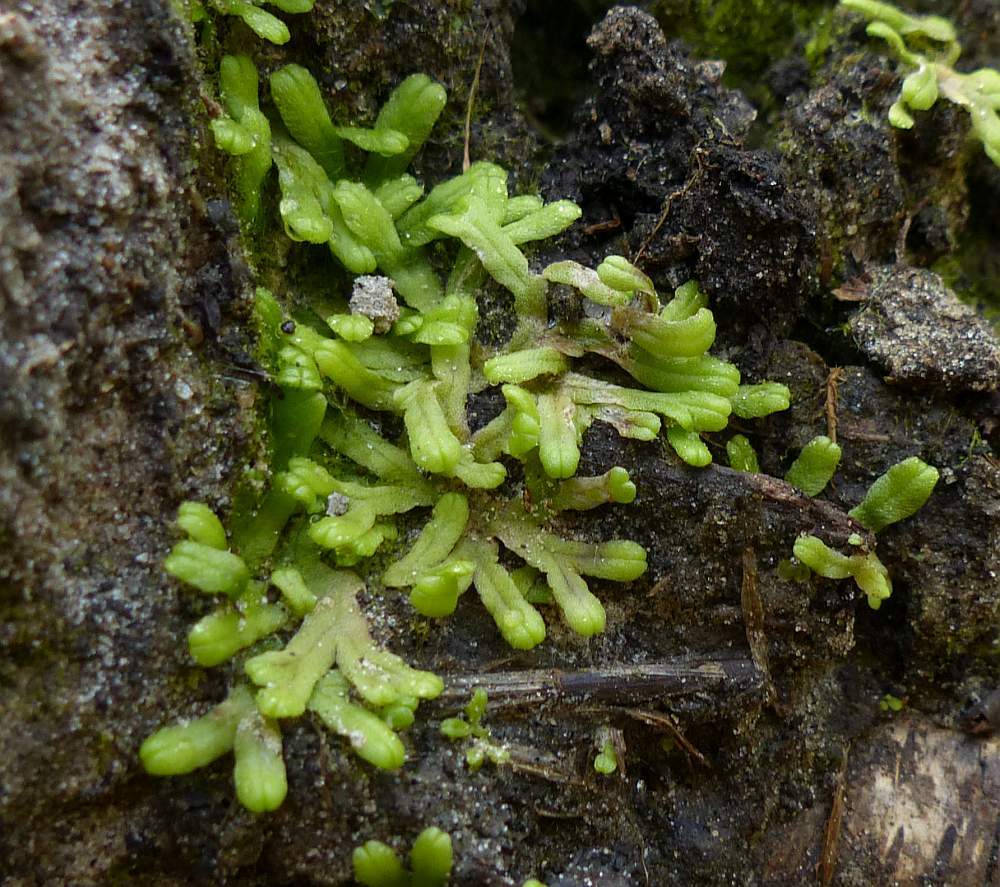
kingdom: Plantae
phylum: Marchantiophyta
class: Marchantiopsida
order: Marchantiales
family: Ricciaceae
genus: Ricciocarpos
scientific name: Ricciocarpos natans
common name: Purple-fringed liverwort
